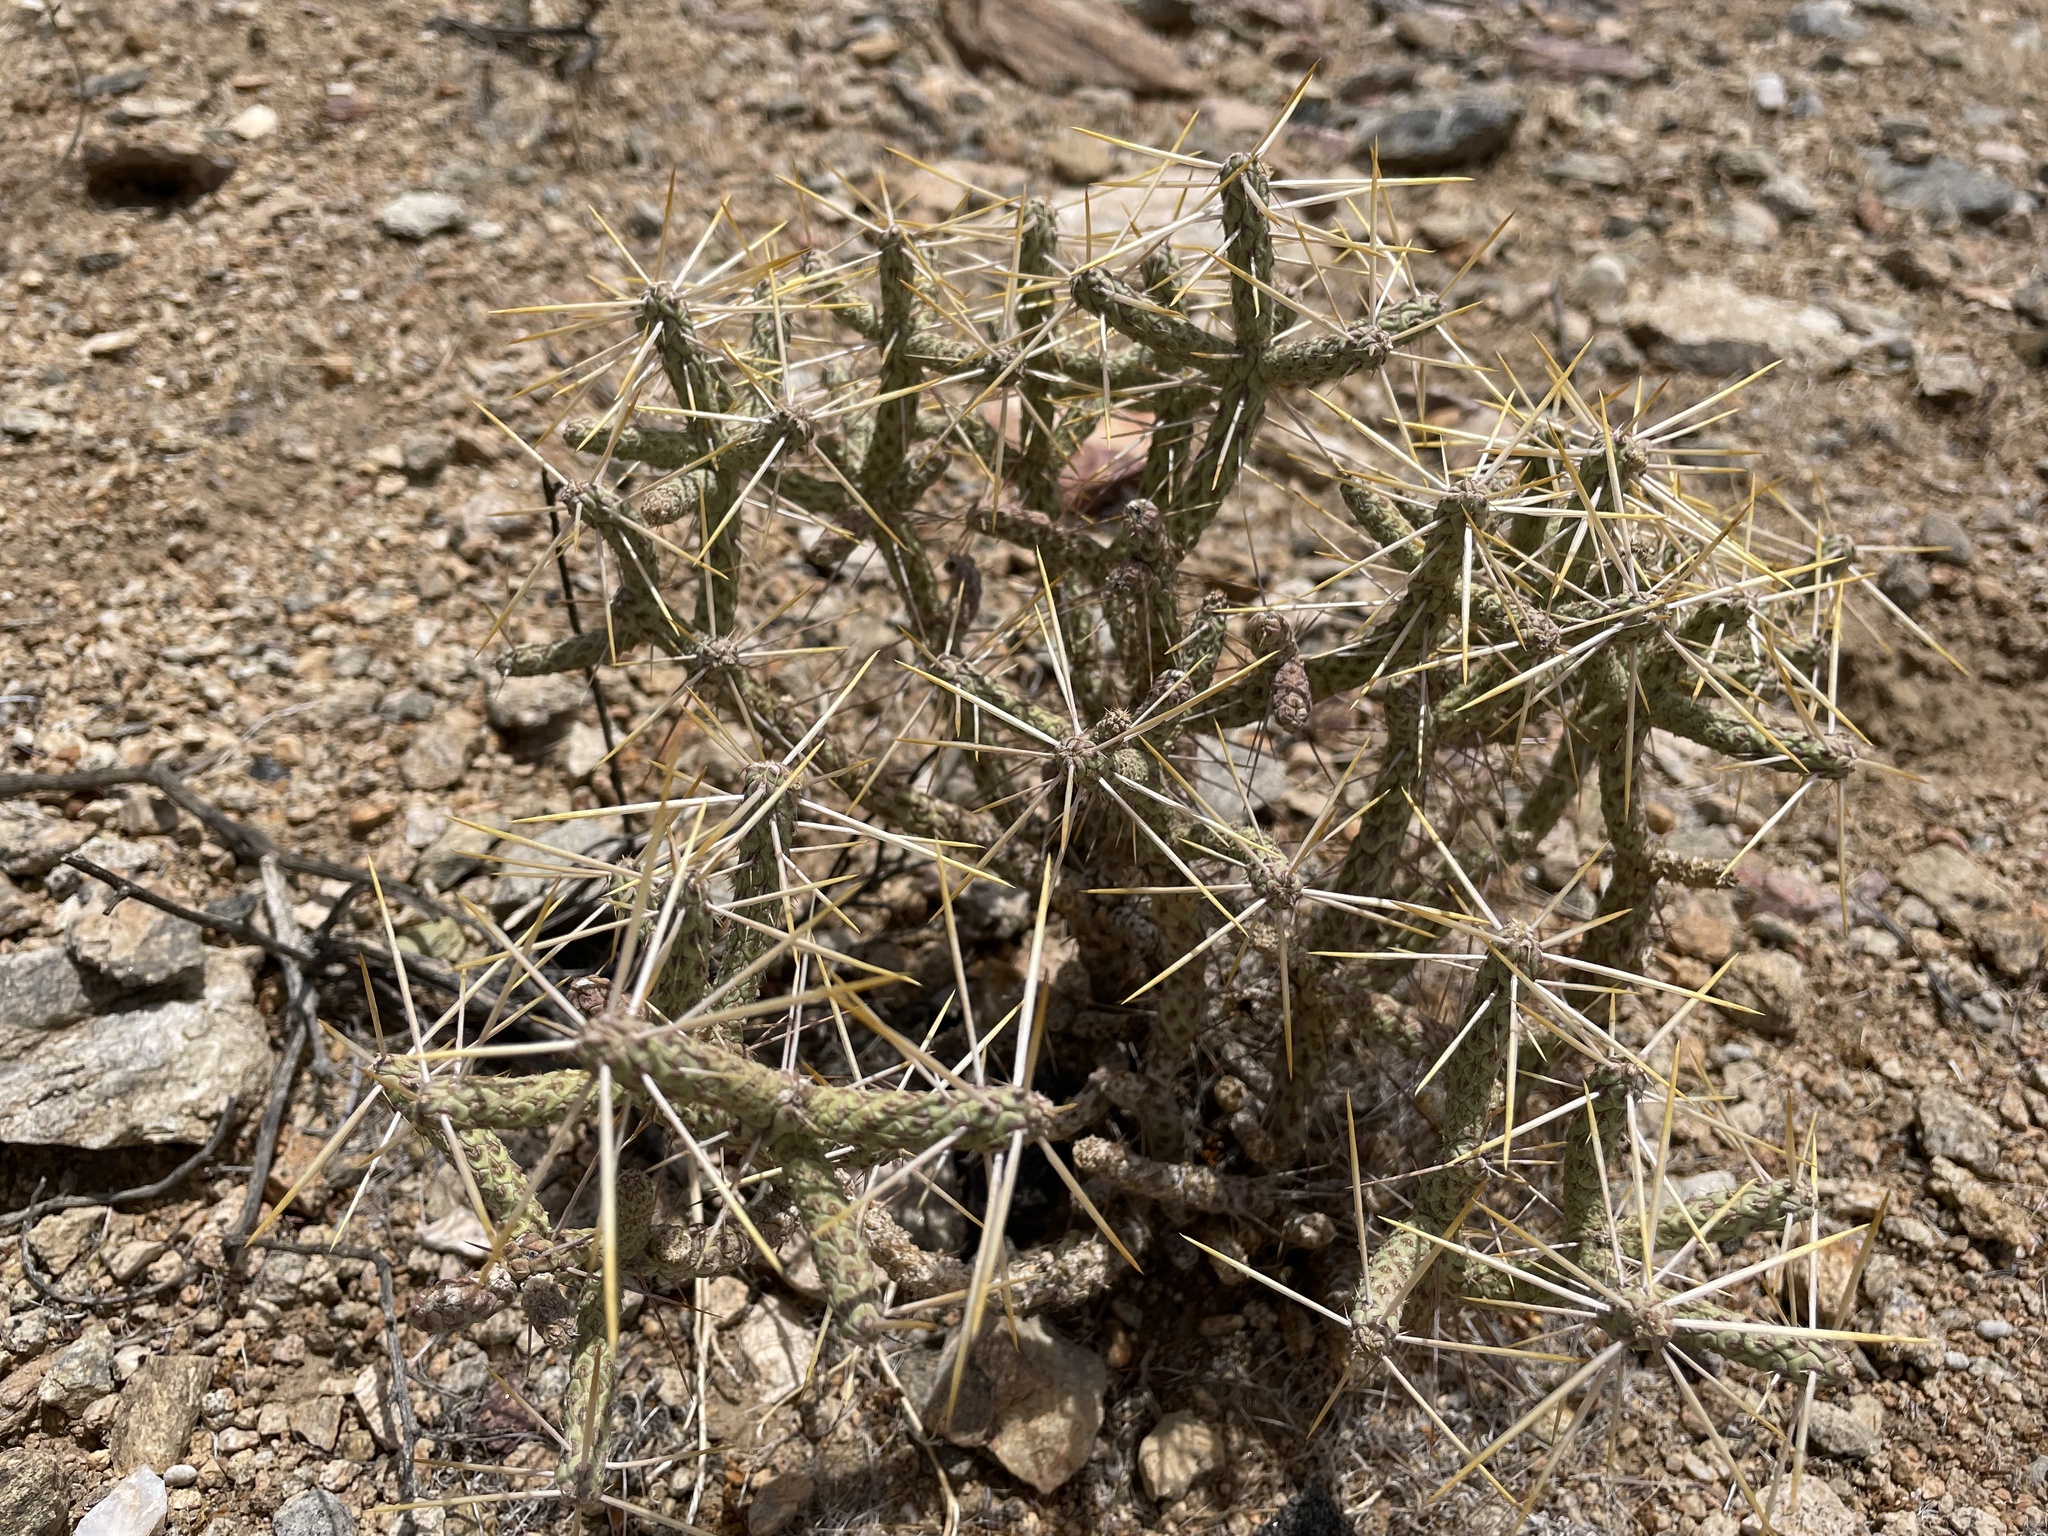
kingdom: Plantae
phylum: Tracheophyta
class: Magnoliopsida
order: Caryophyllales
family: Cactaceae
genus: Cylindropuntia
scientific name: Cylindropuntia ramosissima
